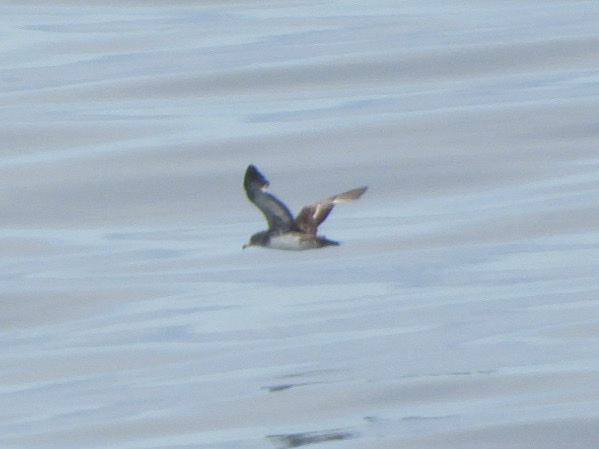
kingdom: Animalia
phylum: Chordata
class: Aves
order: Procellariiformes
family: Procellariidae
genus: Puffinus
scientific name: Puffinus creatopus
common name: Pink-footed shearwater
